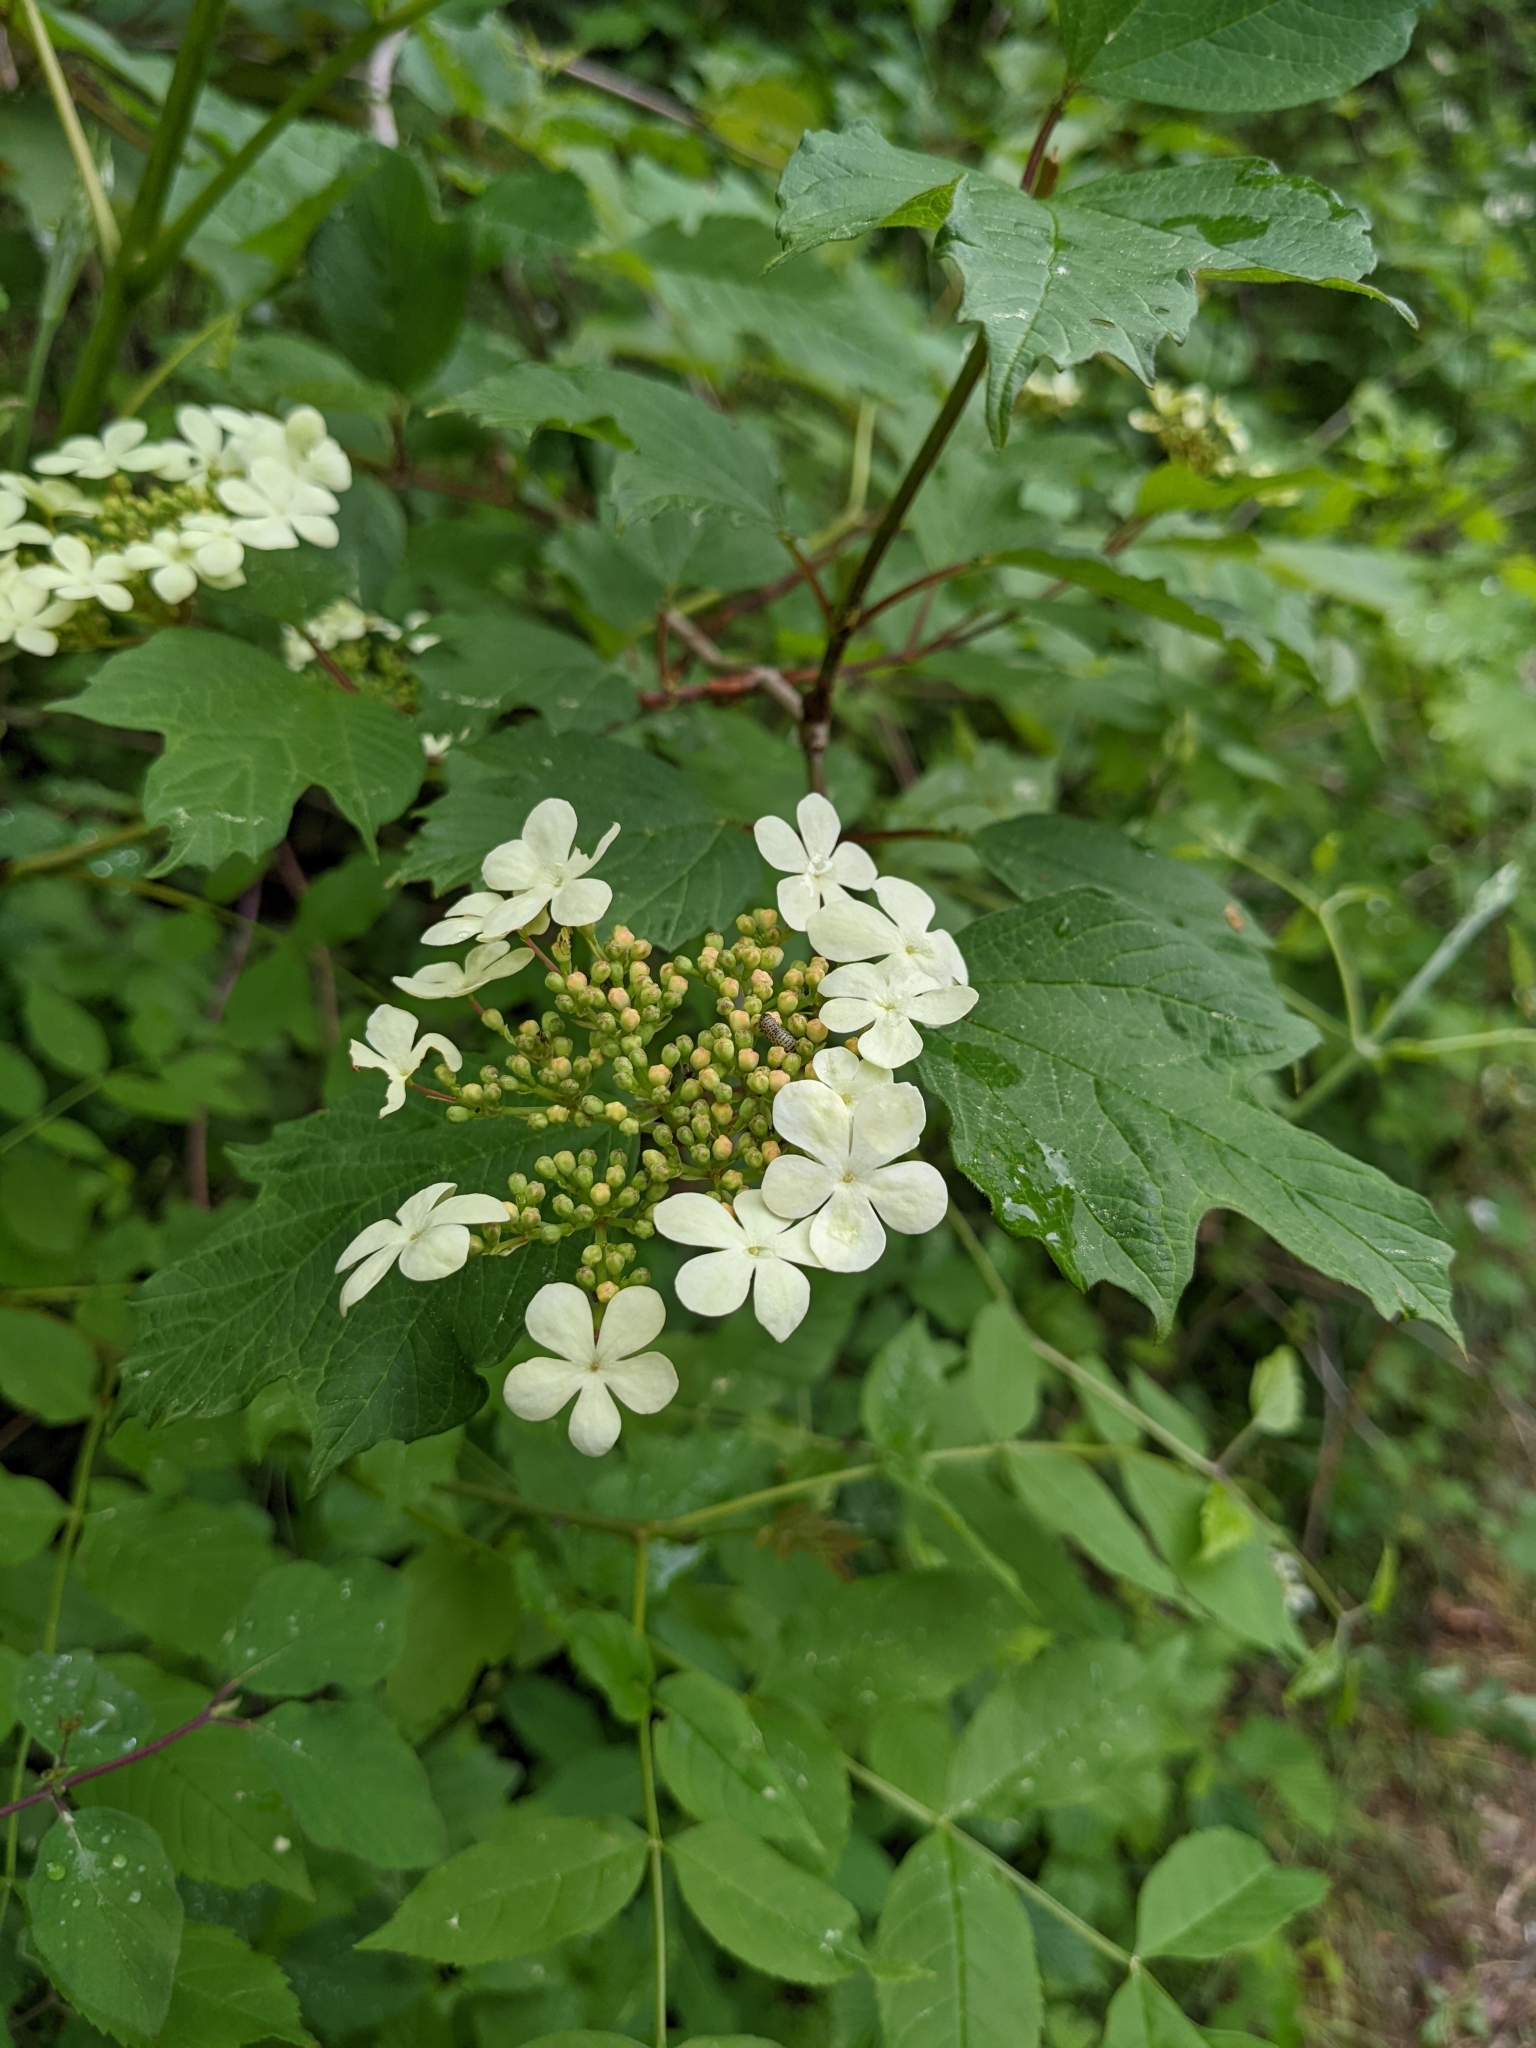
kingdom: Plantae
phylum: Tracheophyta
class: Magnoliopsida
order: Dipsacales
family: Viburnaceae
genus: Viburnum
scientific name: Viburnum opulus
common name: Guelder-rose
